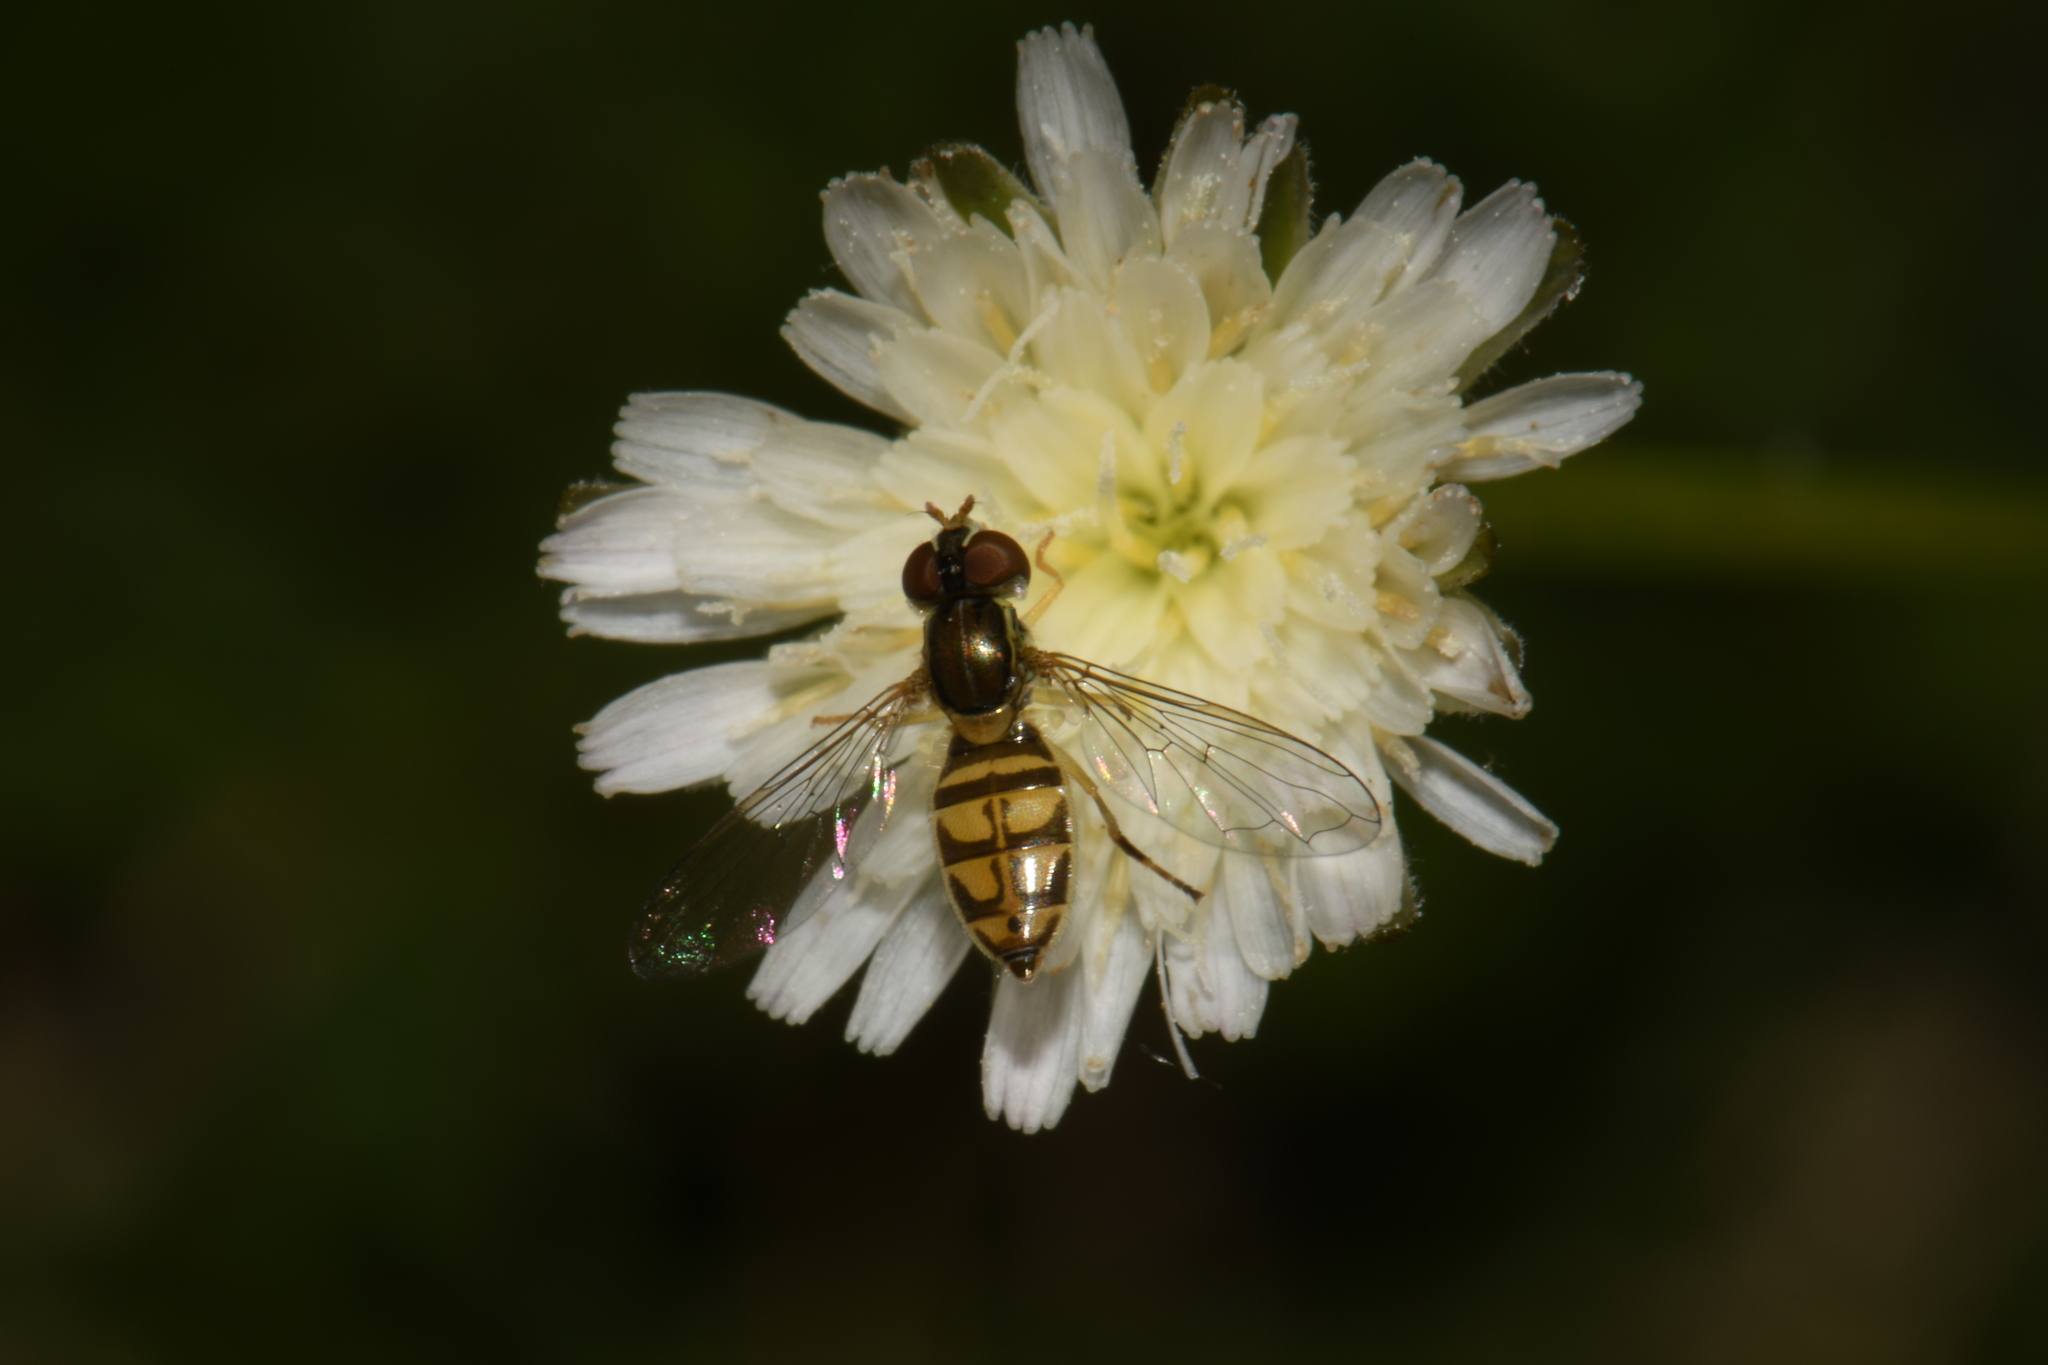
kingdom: Animalia
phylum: Arthropoda
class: Insecta
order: Diptera
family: Syrphidae
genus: Toxomerus
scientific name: Toxomerus marginatus
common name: Syrphid fly
